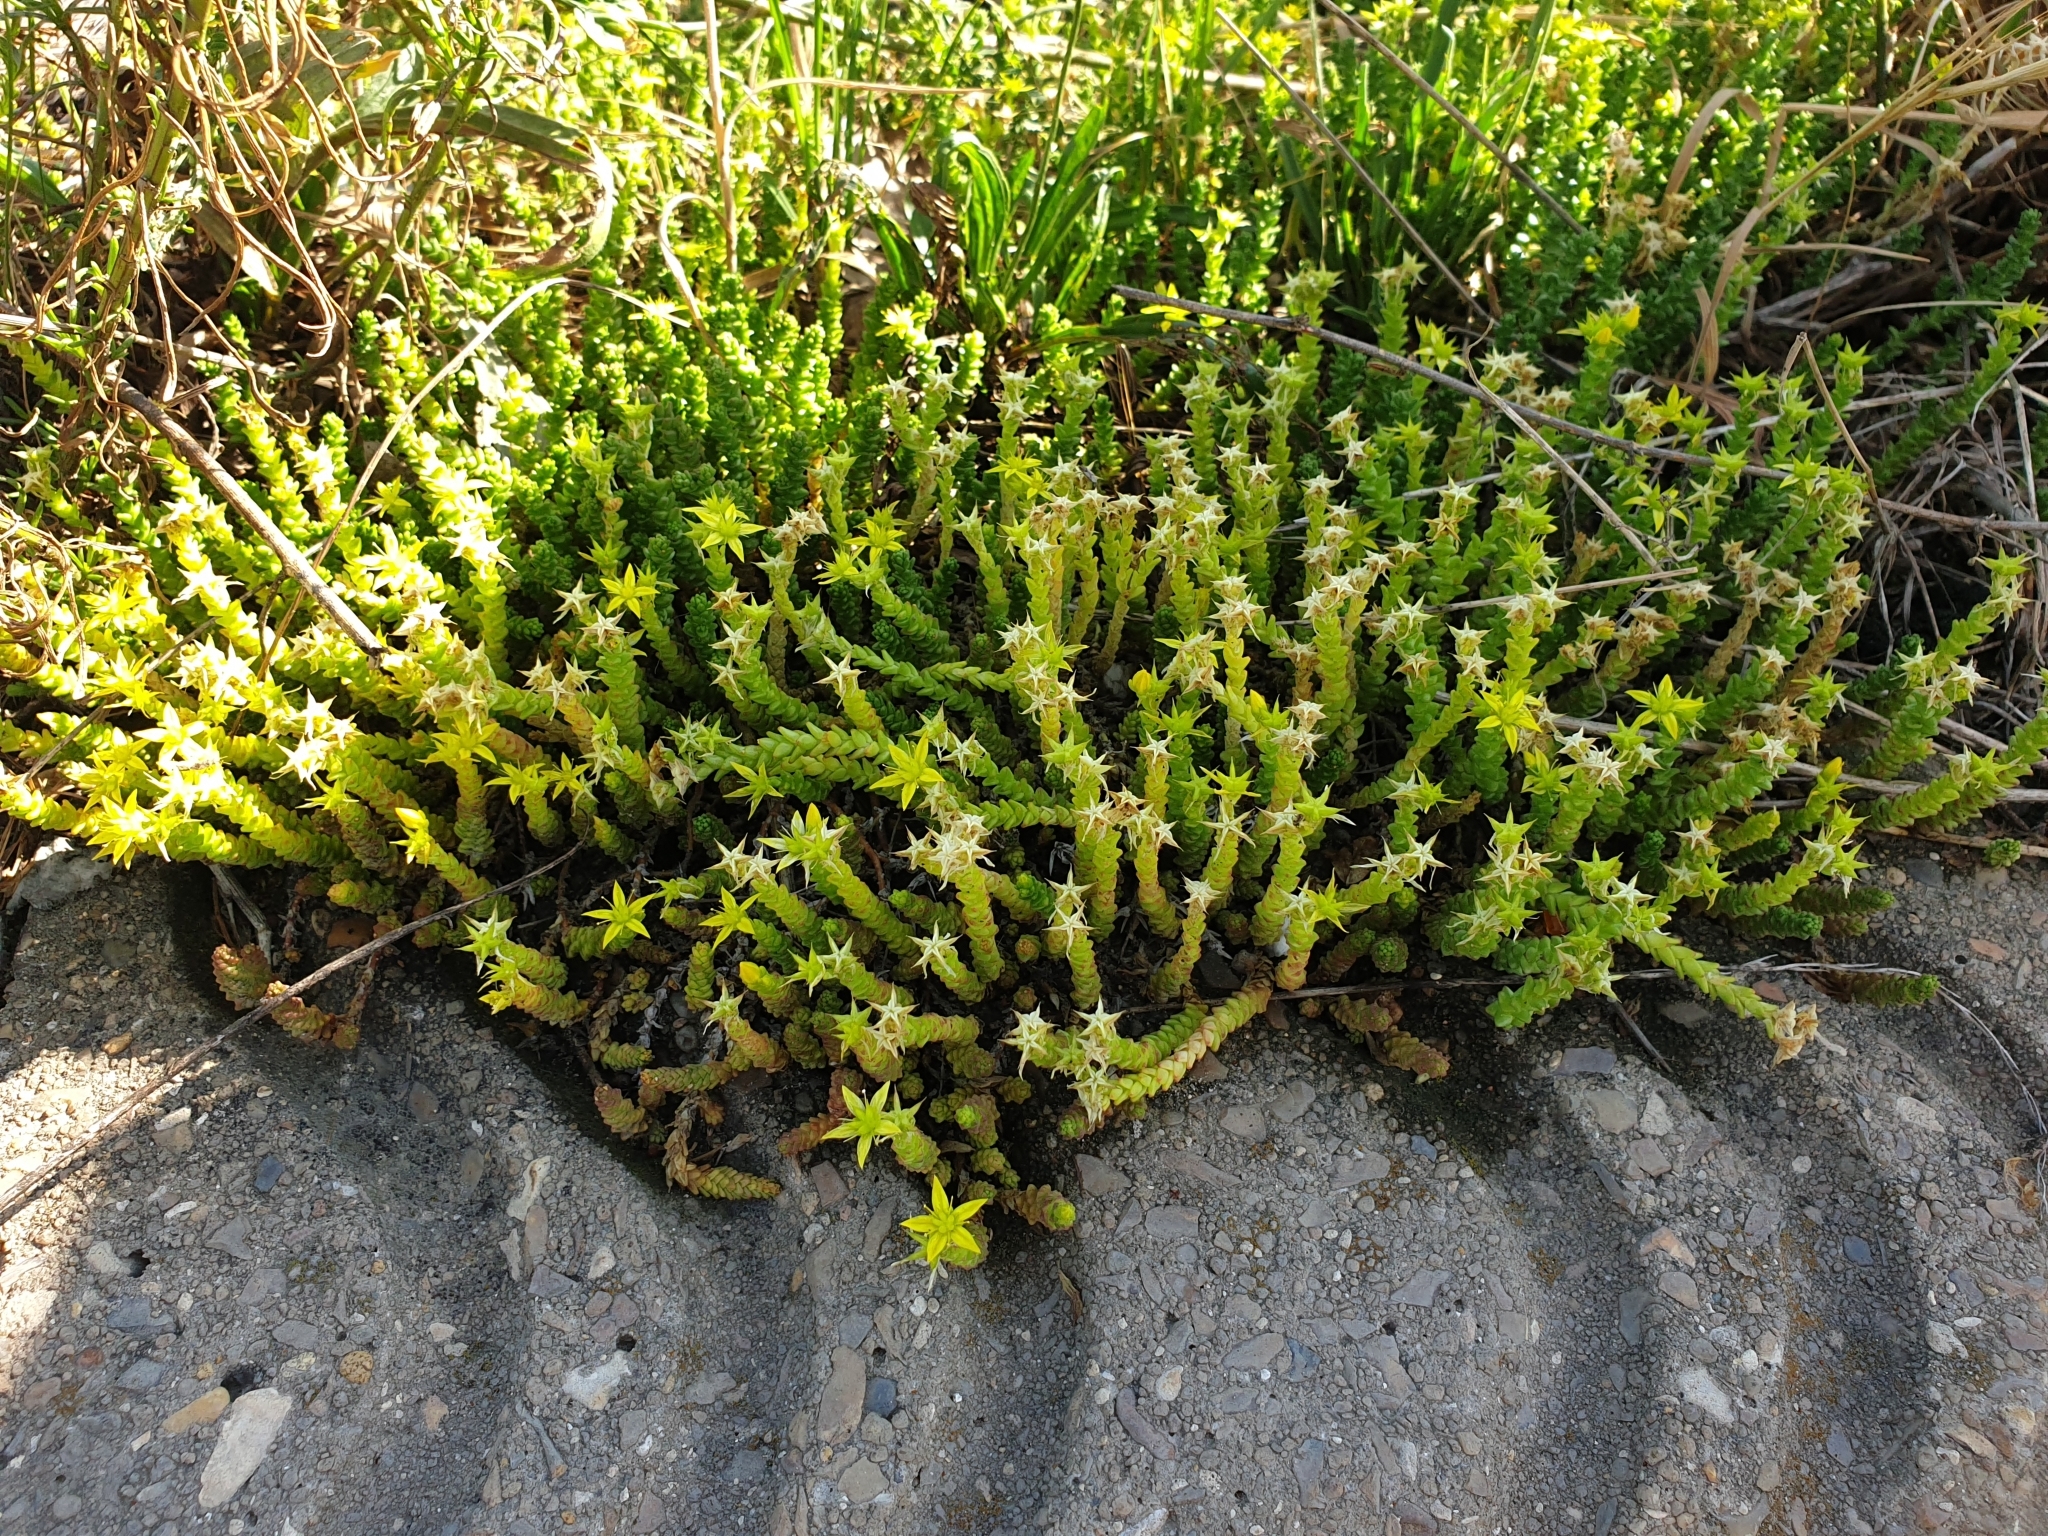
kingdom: Plantae
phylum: Tracheophyta
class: Magnoliopsida
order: Saxifragales
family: Crassulaceae
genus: Sedum
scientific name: Sedum acre
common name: Biting stonecrop
